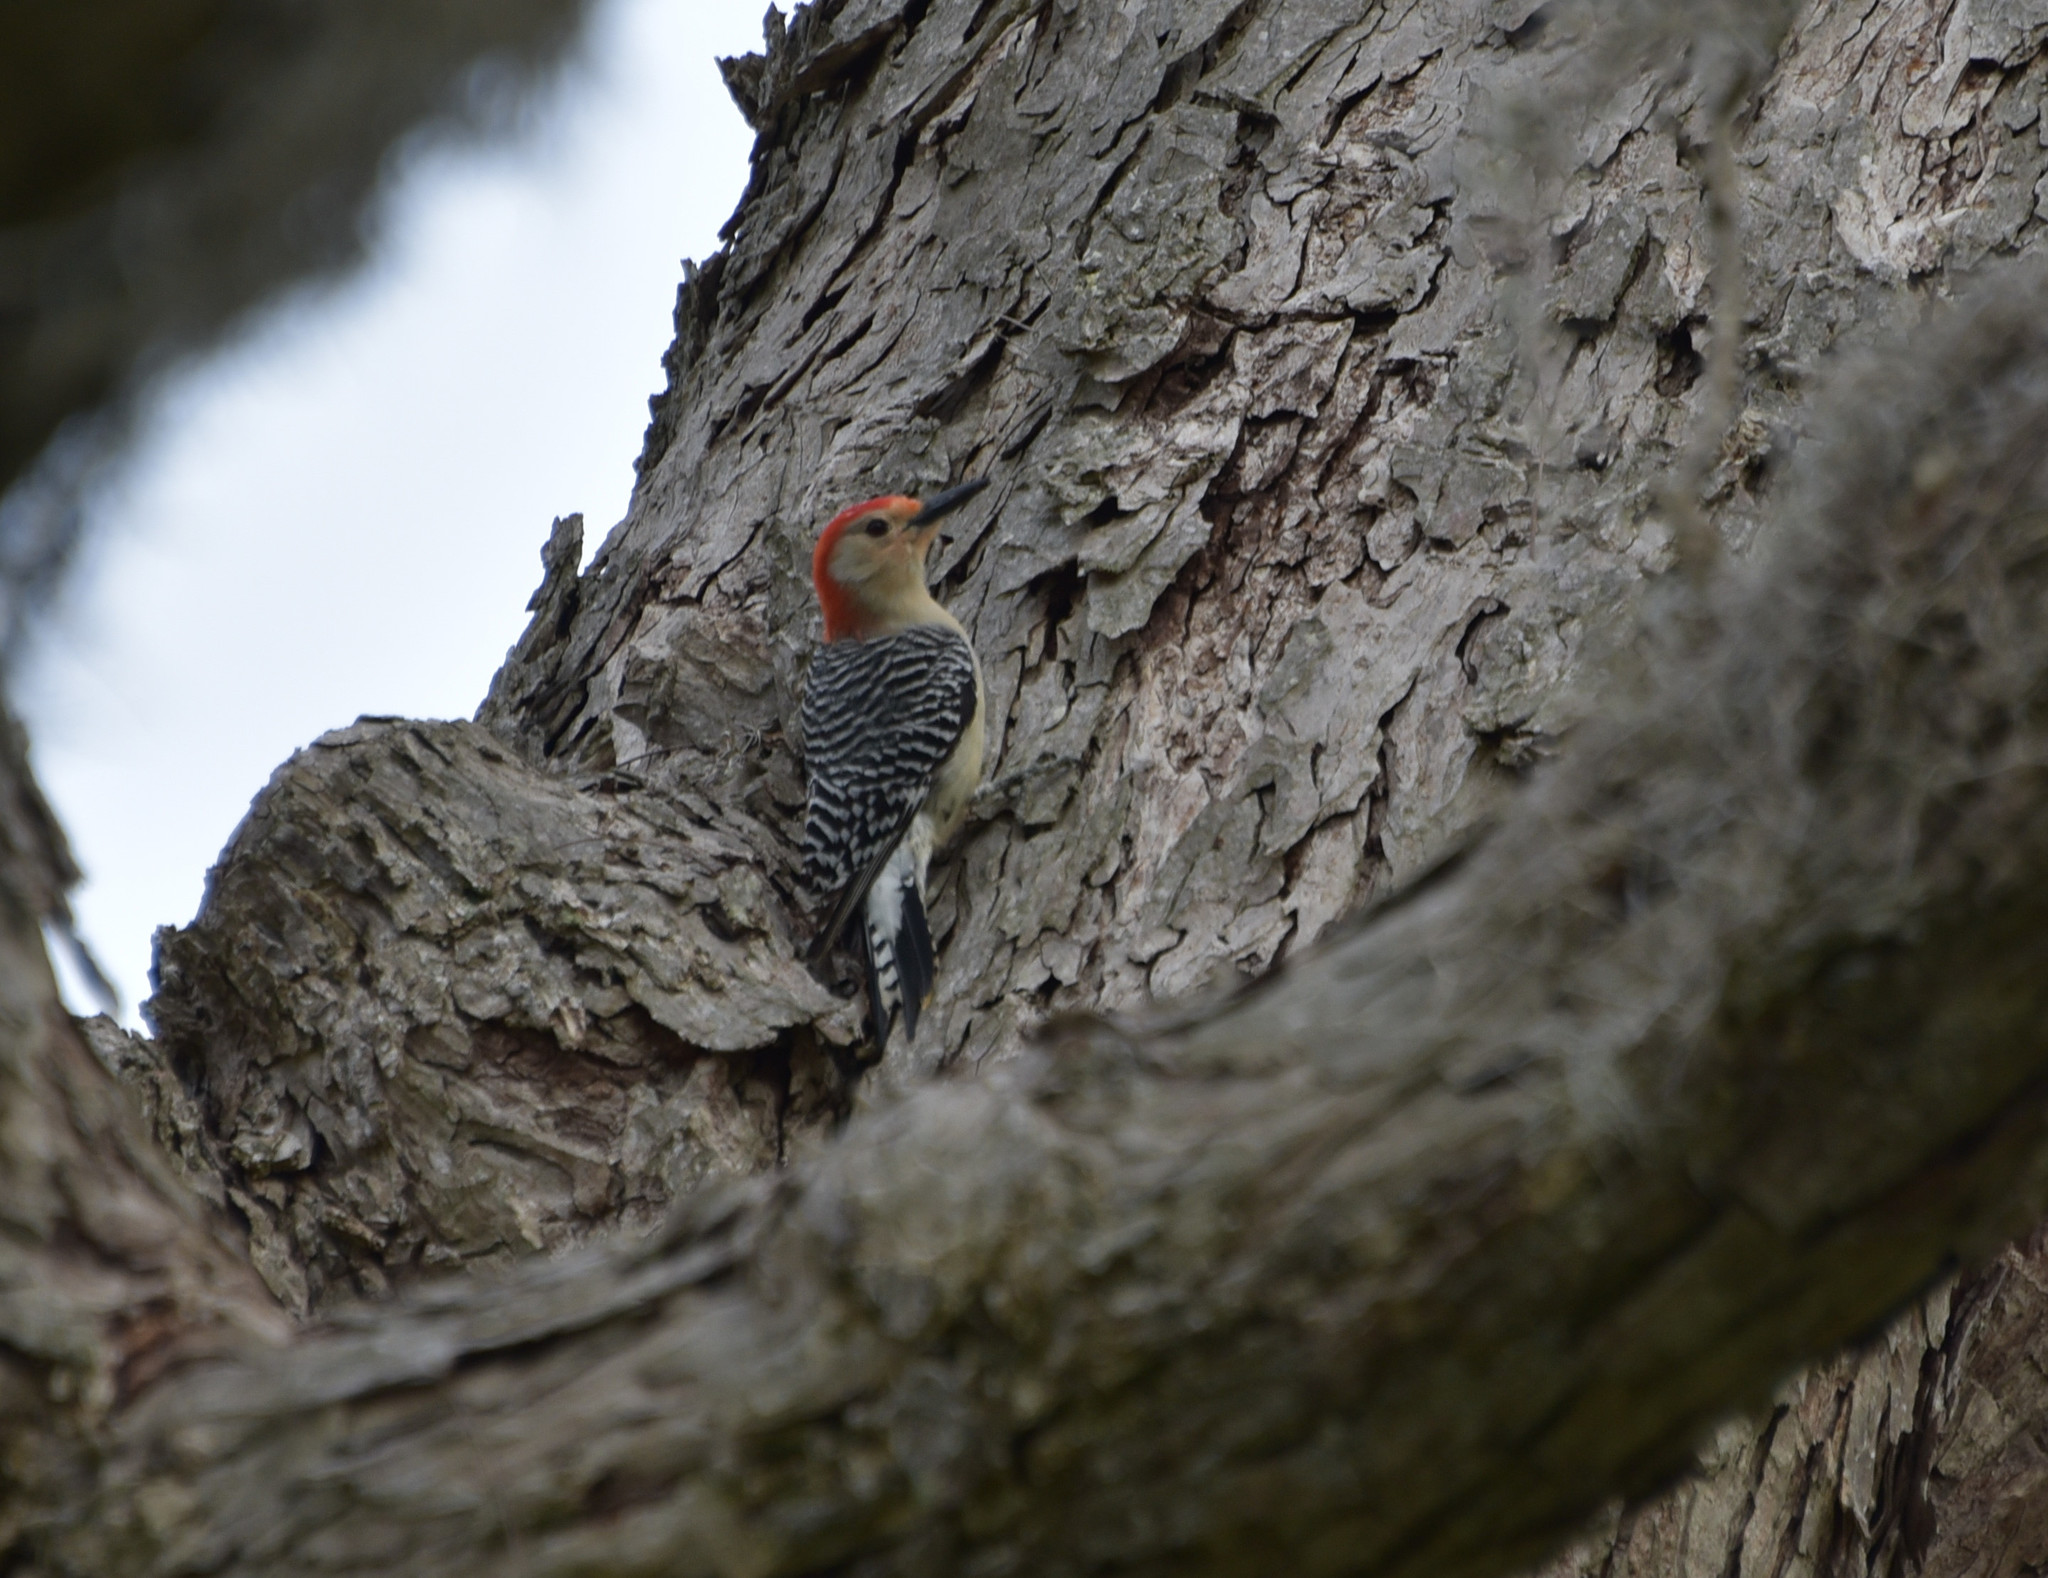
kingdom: Animalia
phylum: Chordata
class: Aves
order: Piciformes
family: Picidae
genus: Melanerpes
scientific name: Melanerpes carolinus
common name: Red-bellied woodpecker
